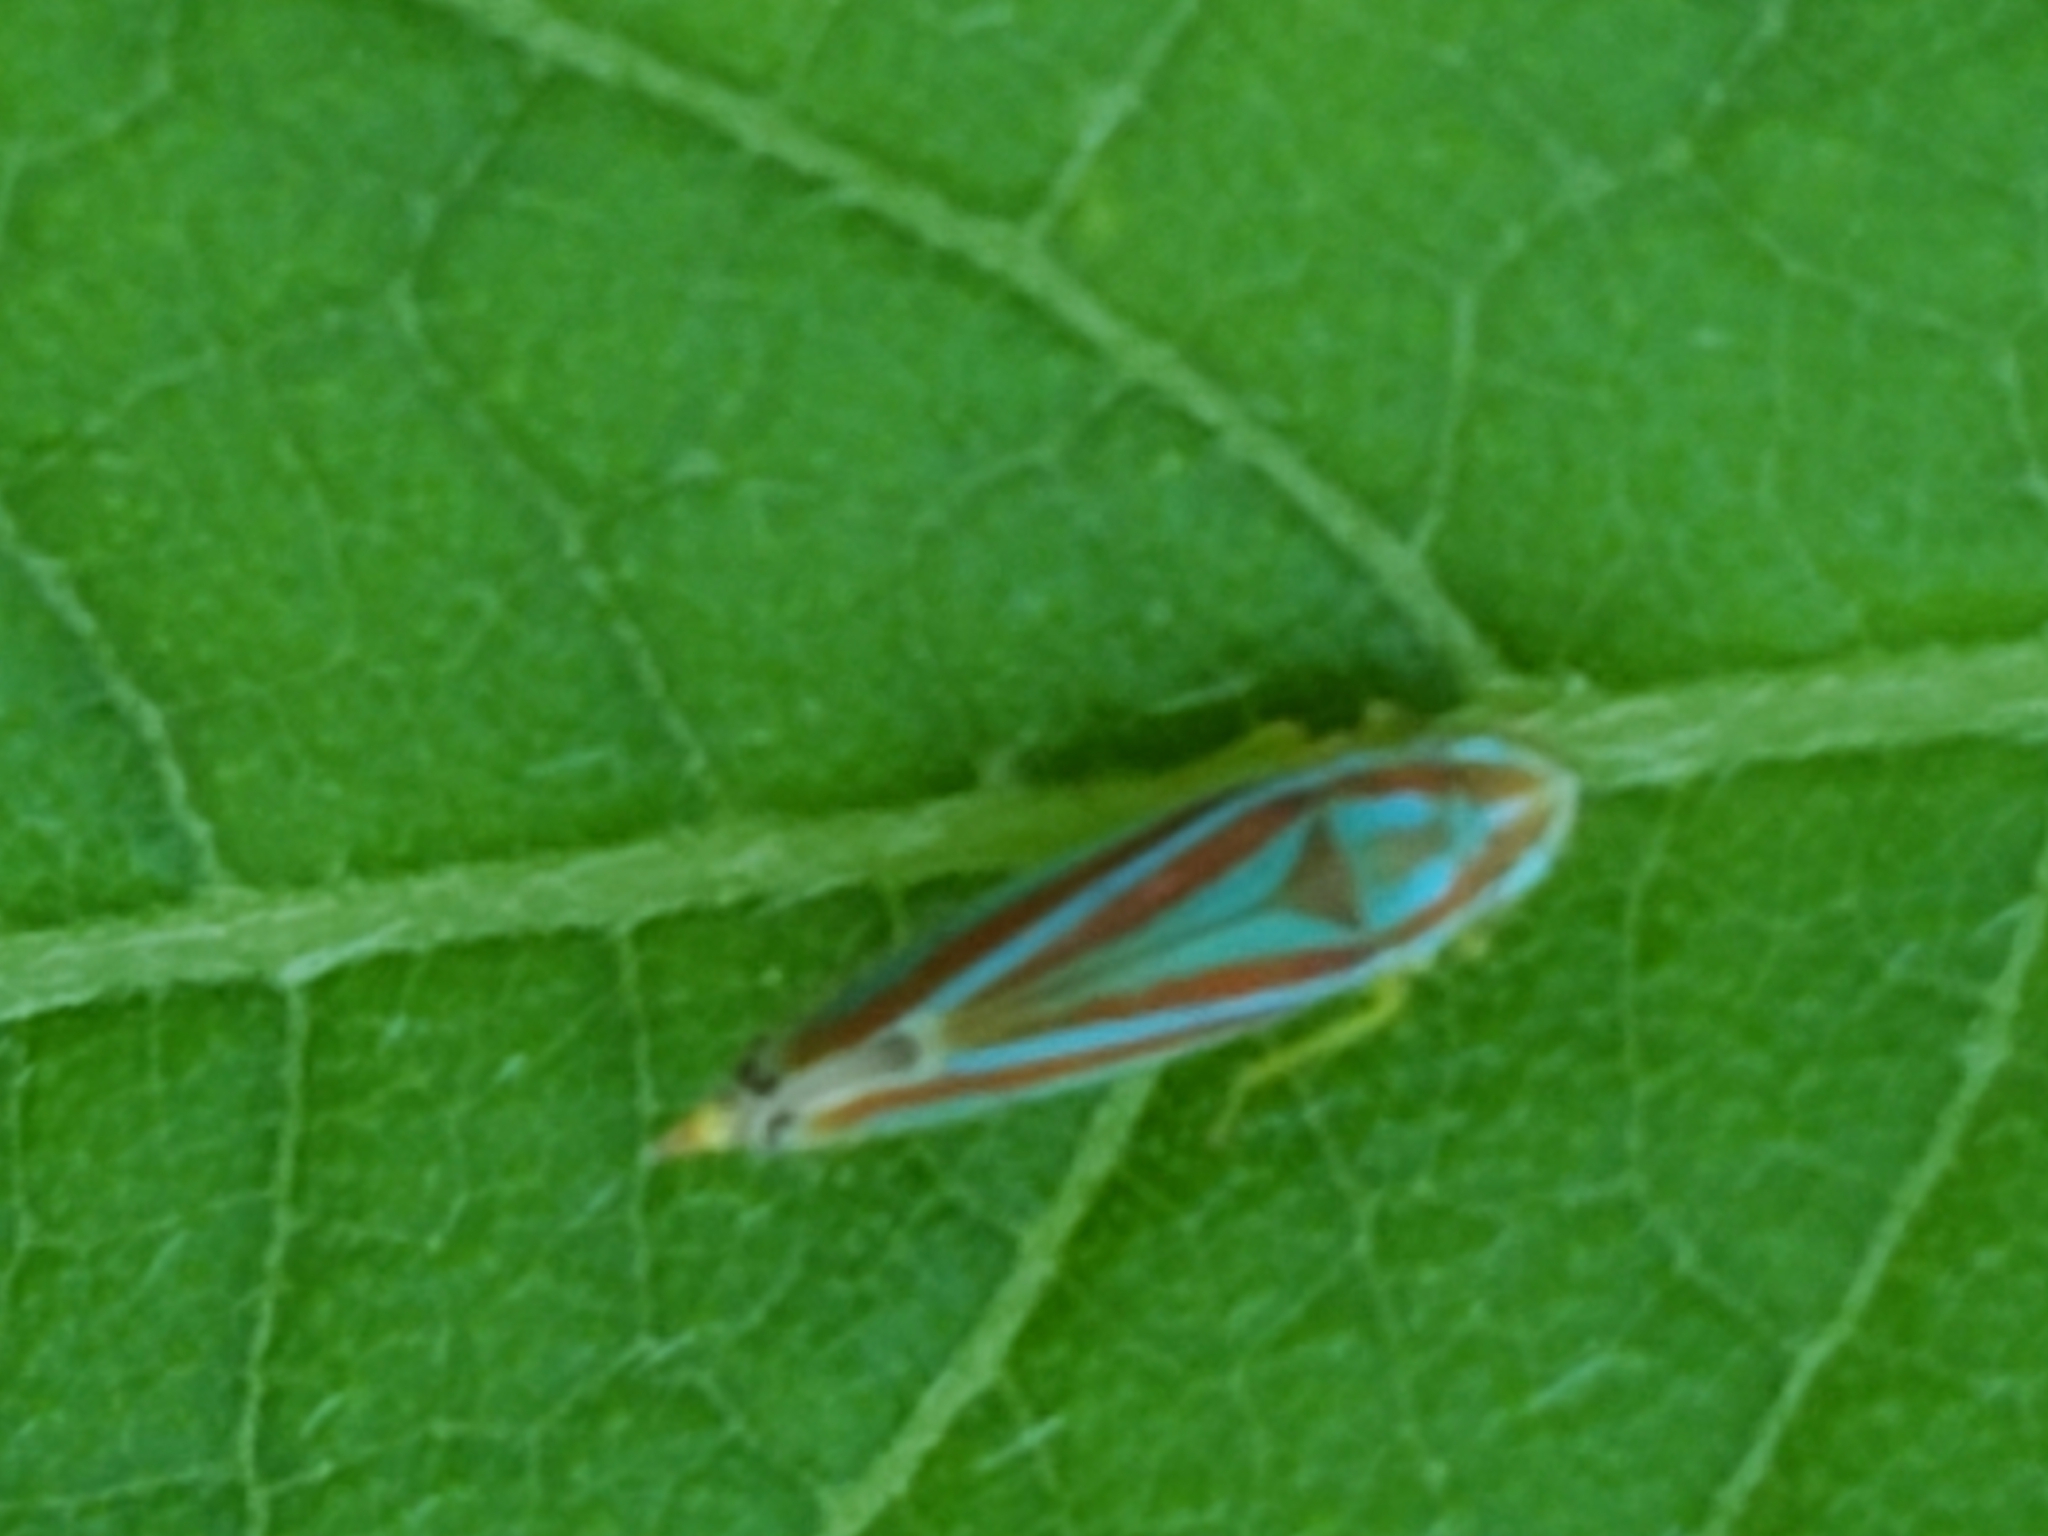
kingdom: Animalia
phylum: Arthropoda
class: Insecta
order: Hemiptera
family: Cicadellidae
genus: Graphocephala
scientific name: Graphocephala versuta
